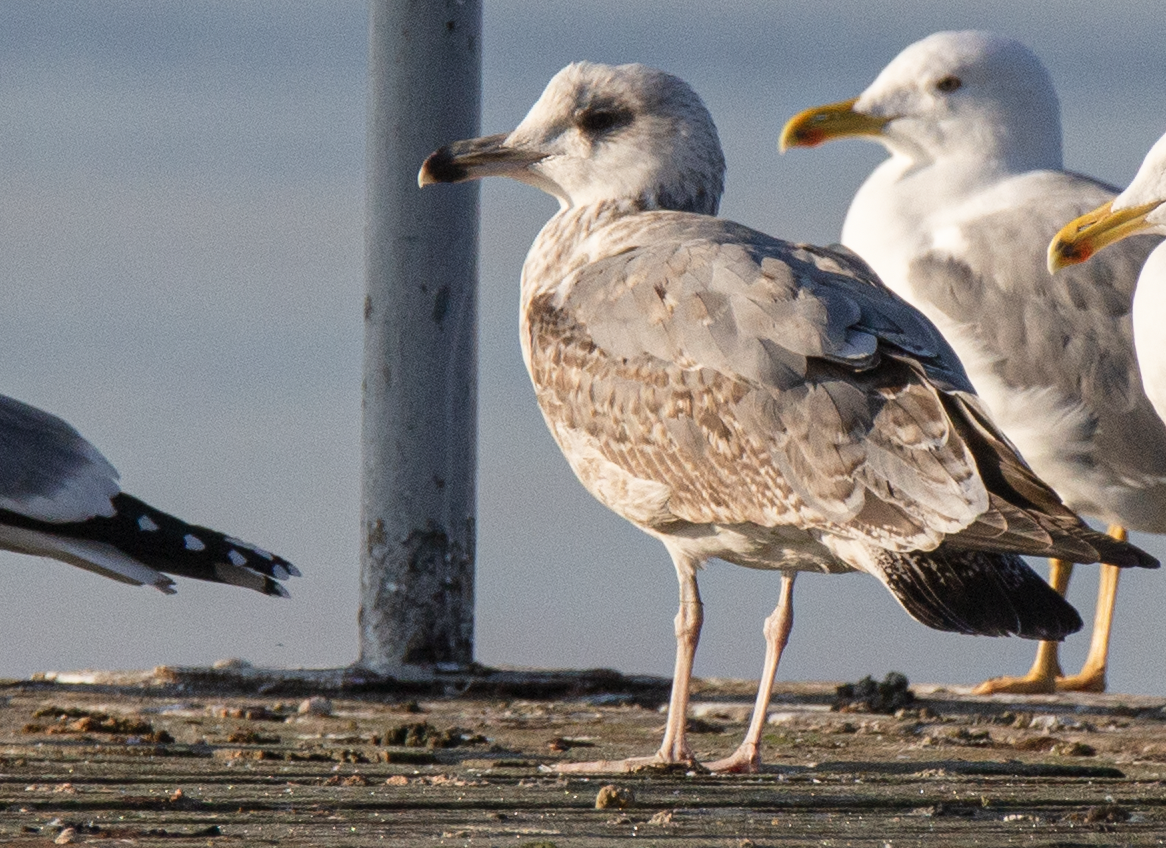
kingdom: Animalia
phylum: Chordata
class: Aves
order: Charadriiformes
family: Laridae
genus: Larus
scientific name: Larus michahellis
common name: Yellow-legged gull
